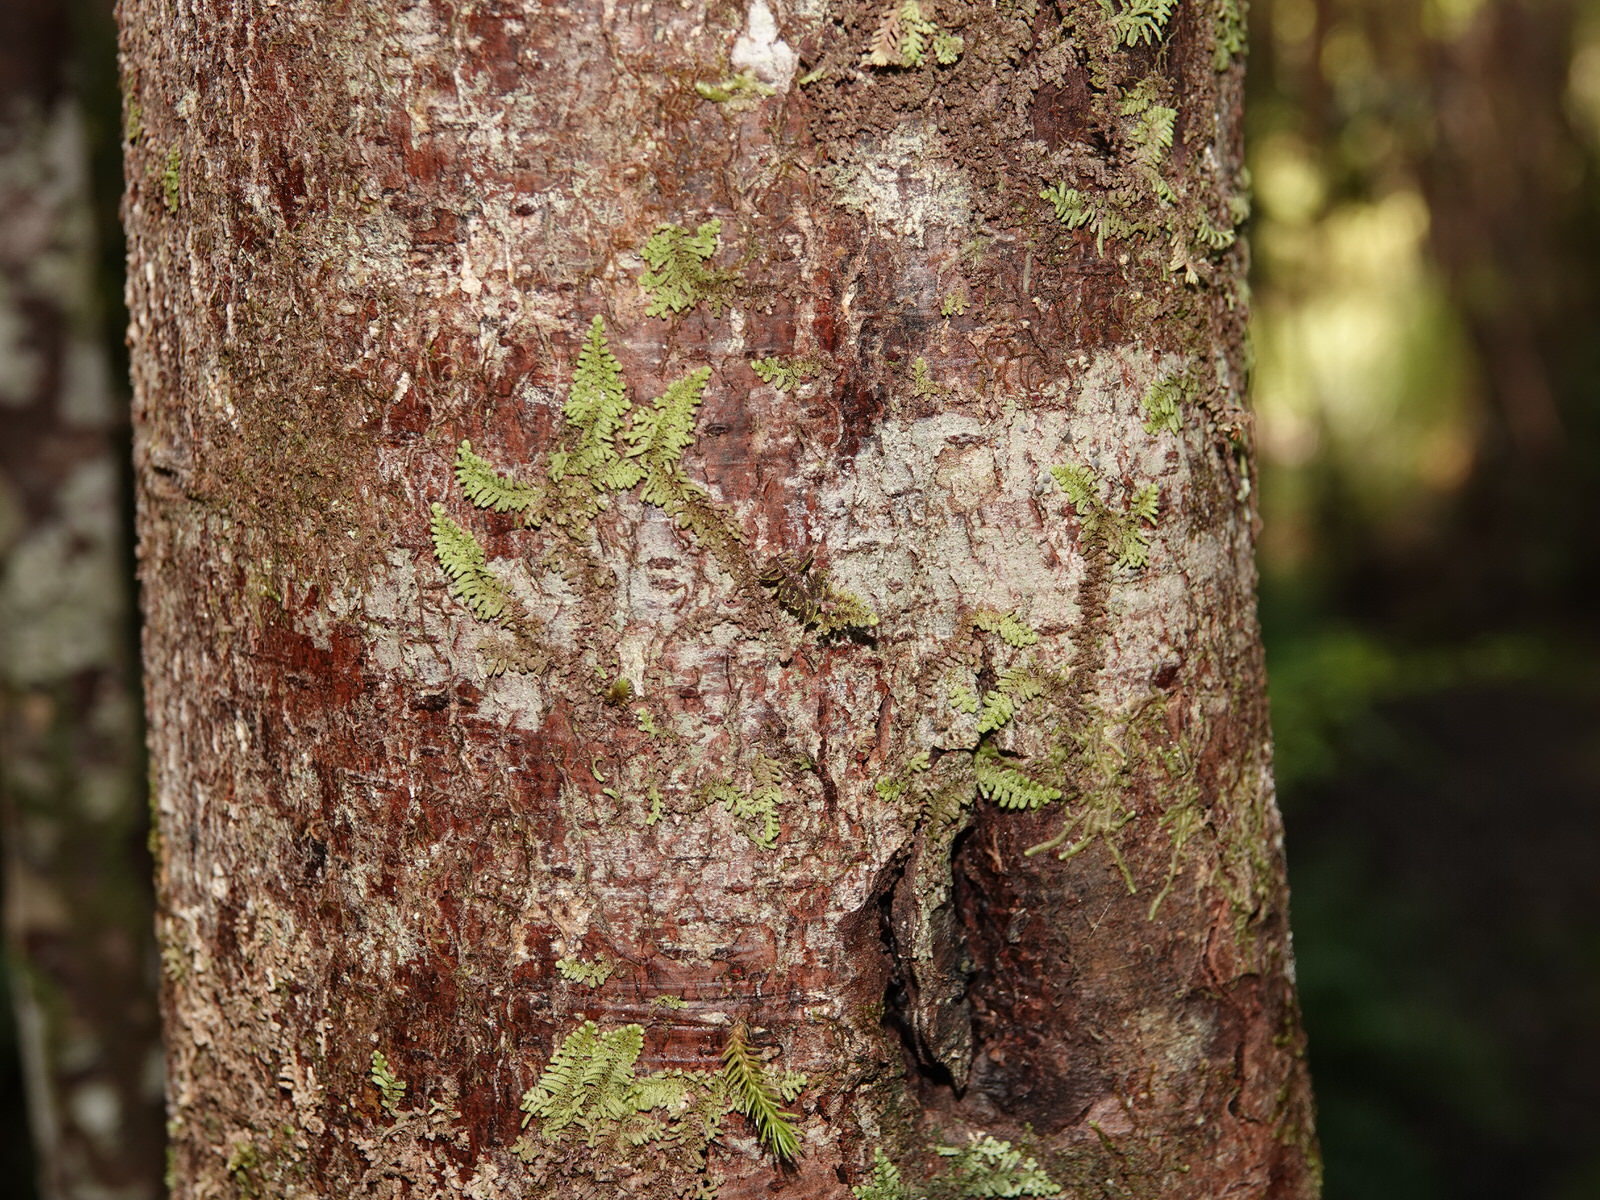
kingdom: Plantae
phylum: Marchantiophyta
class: Jungermanniopsida
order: Porellales
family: Lepidolaenaceae
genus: Lepidolaena
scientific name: Lepidolaena clavigera
